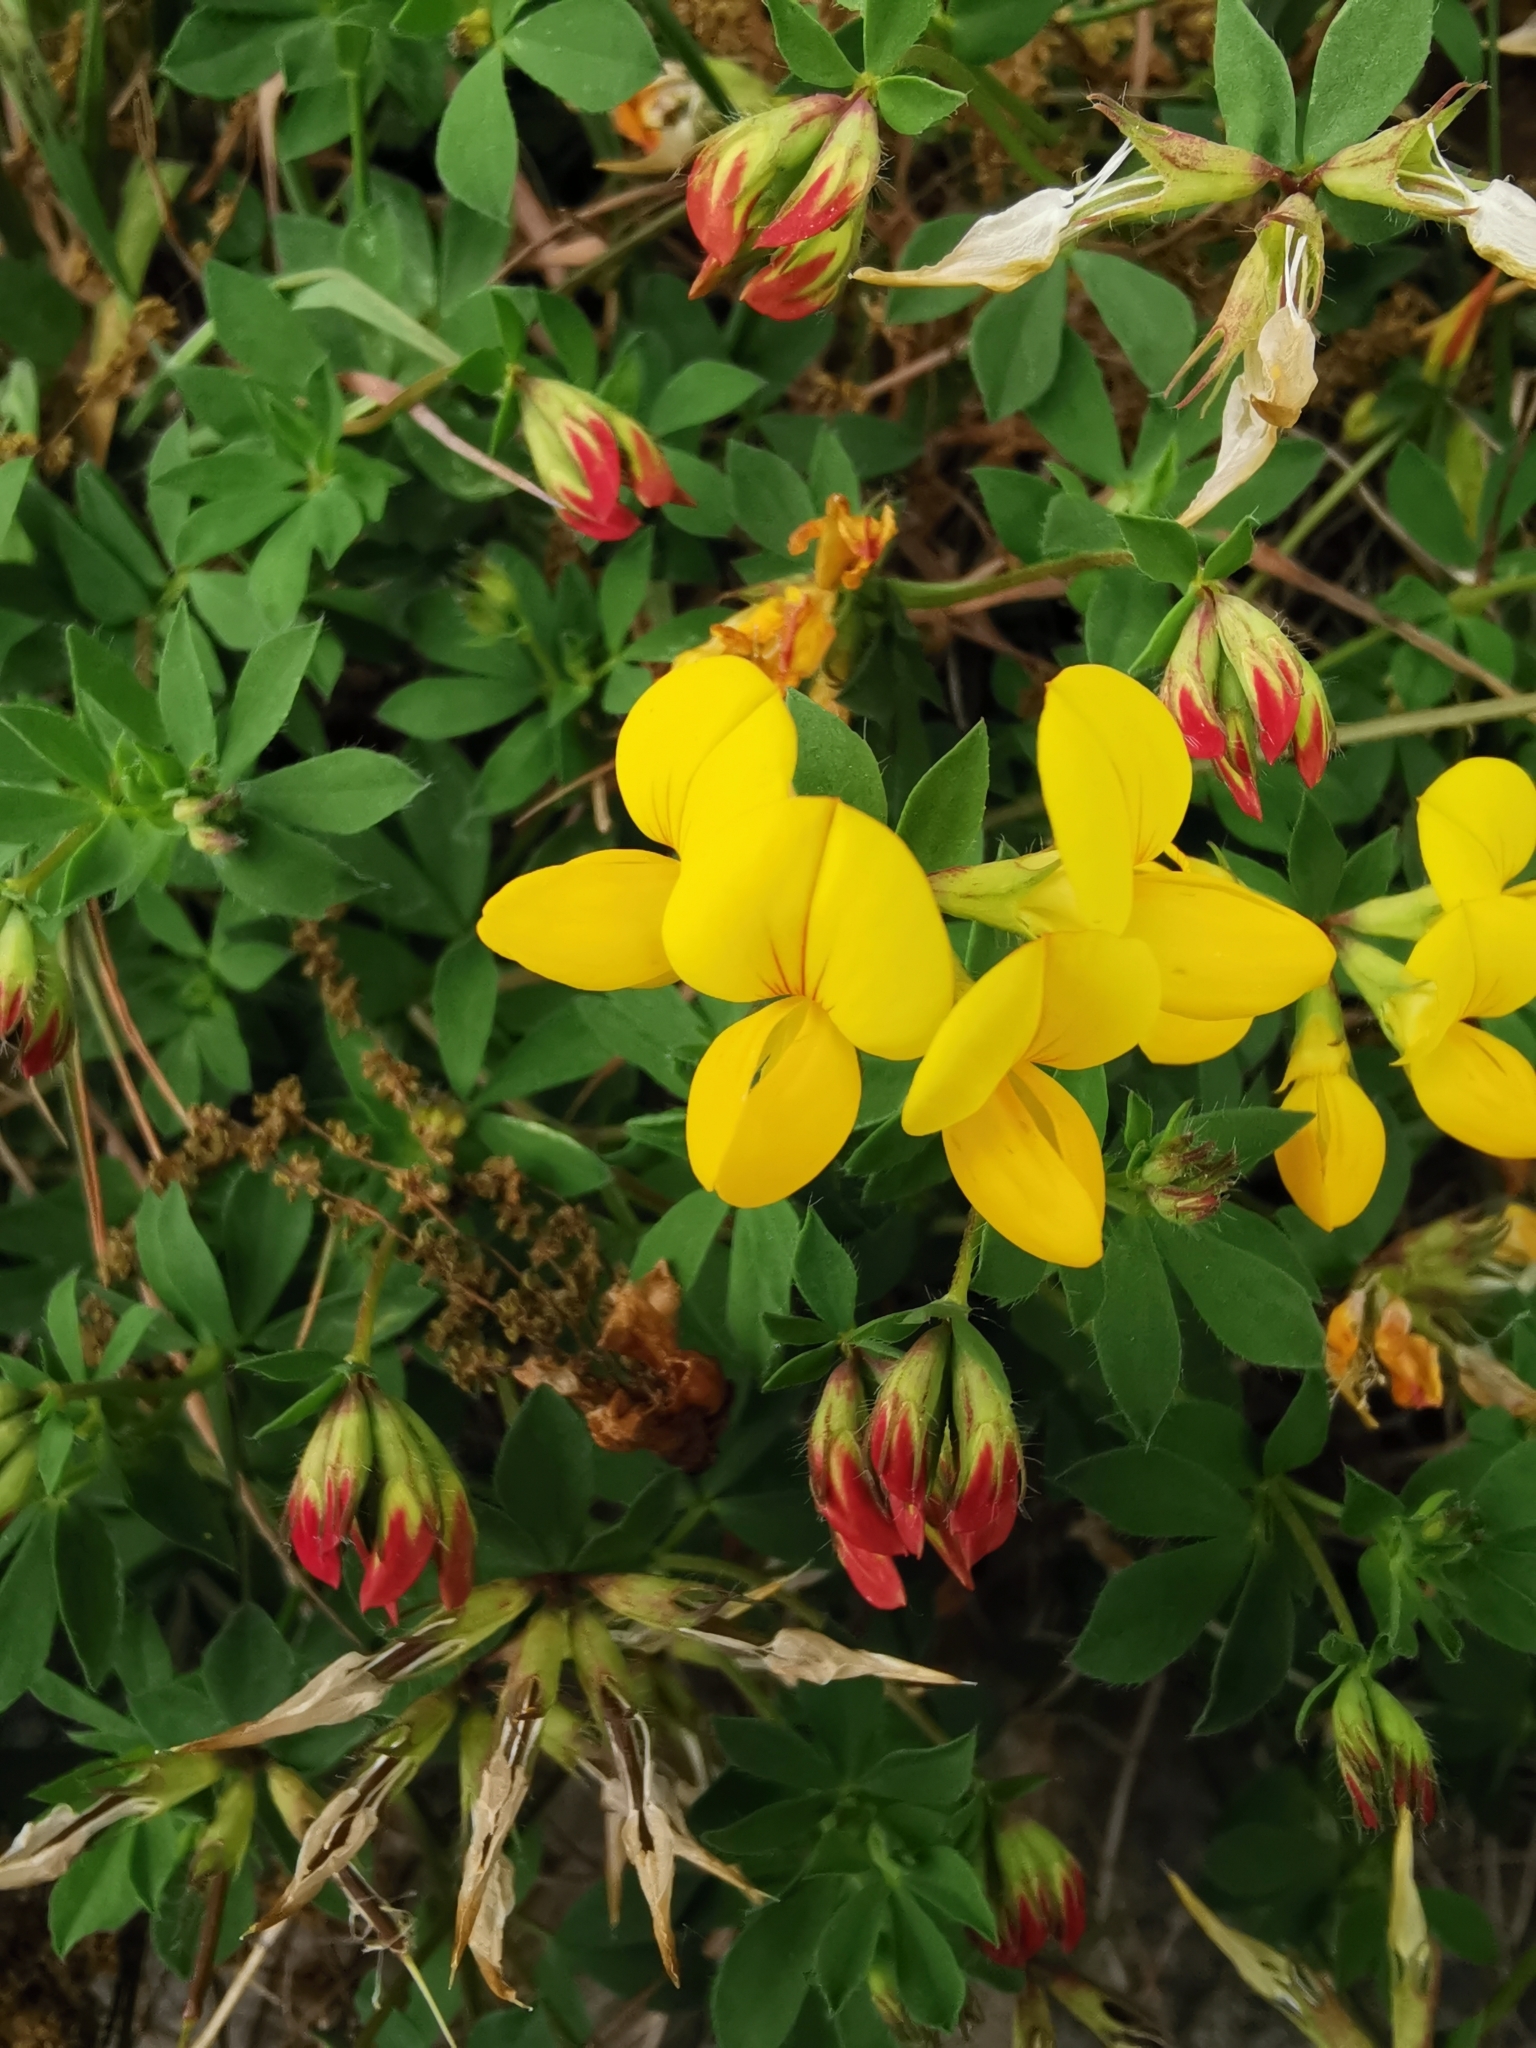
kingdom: Plantae
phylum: Tracheophyta
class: Magnoliopsida
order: Fabales
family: Fabaceae
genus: Lotus
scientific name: Lotus corniculatus
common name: Common bird's-foot-trefoil
